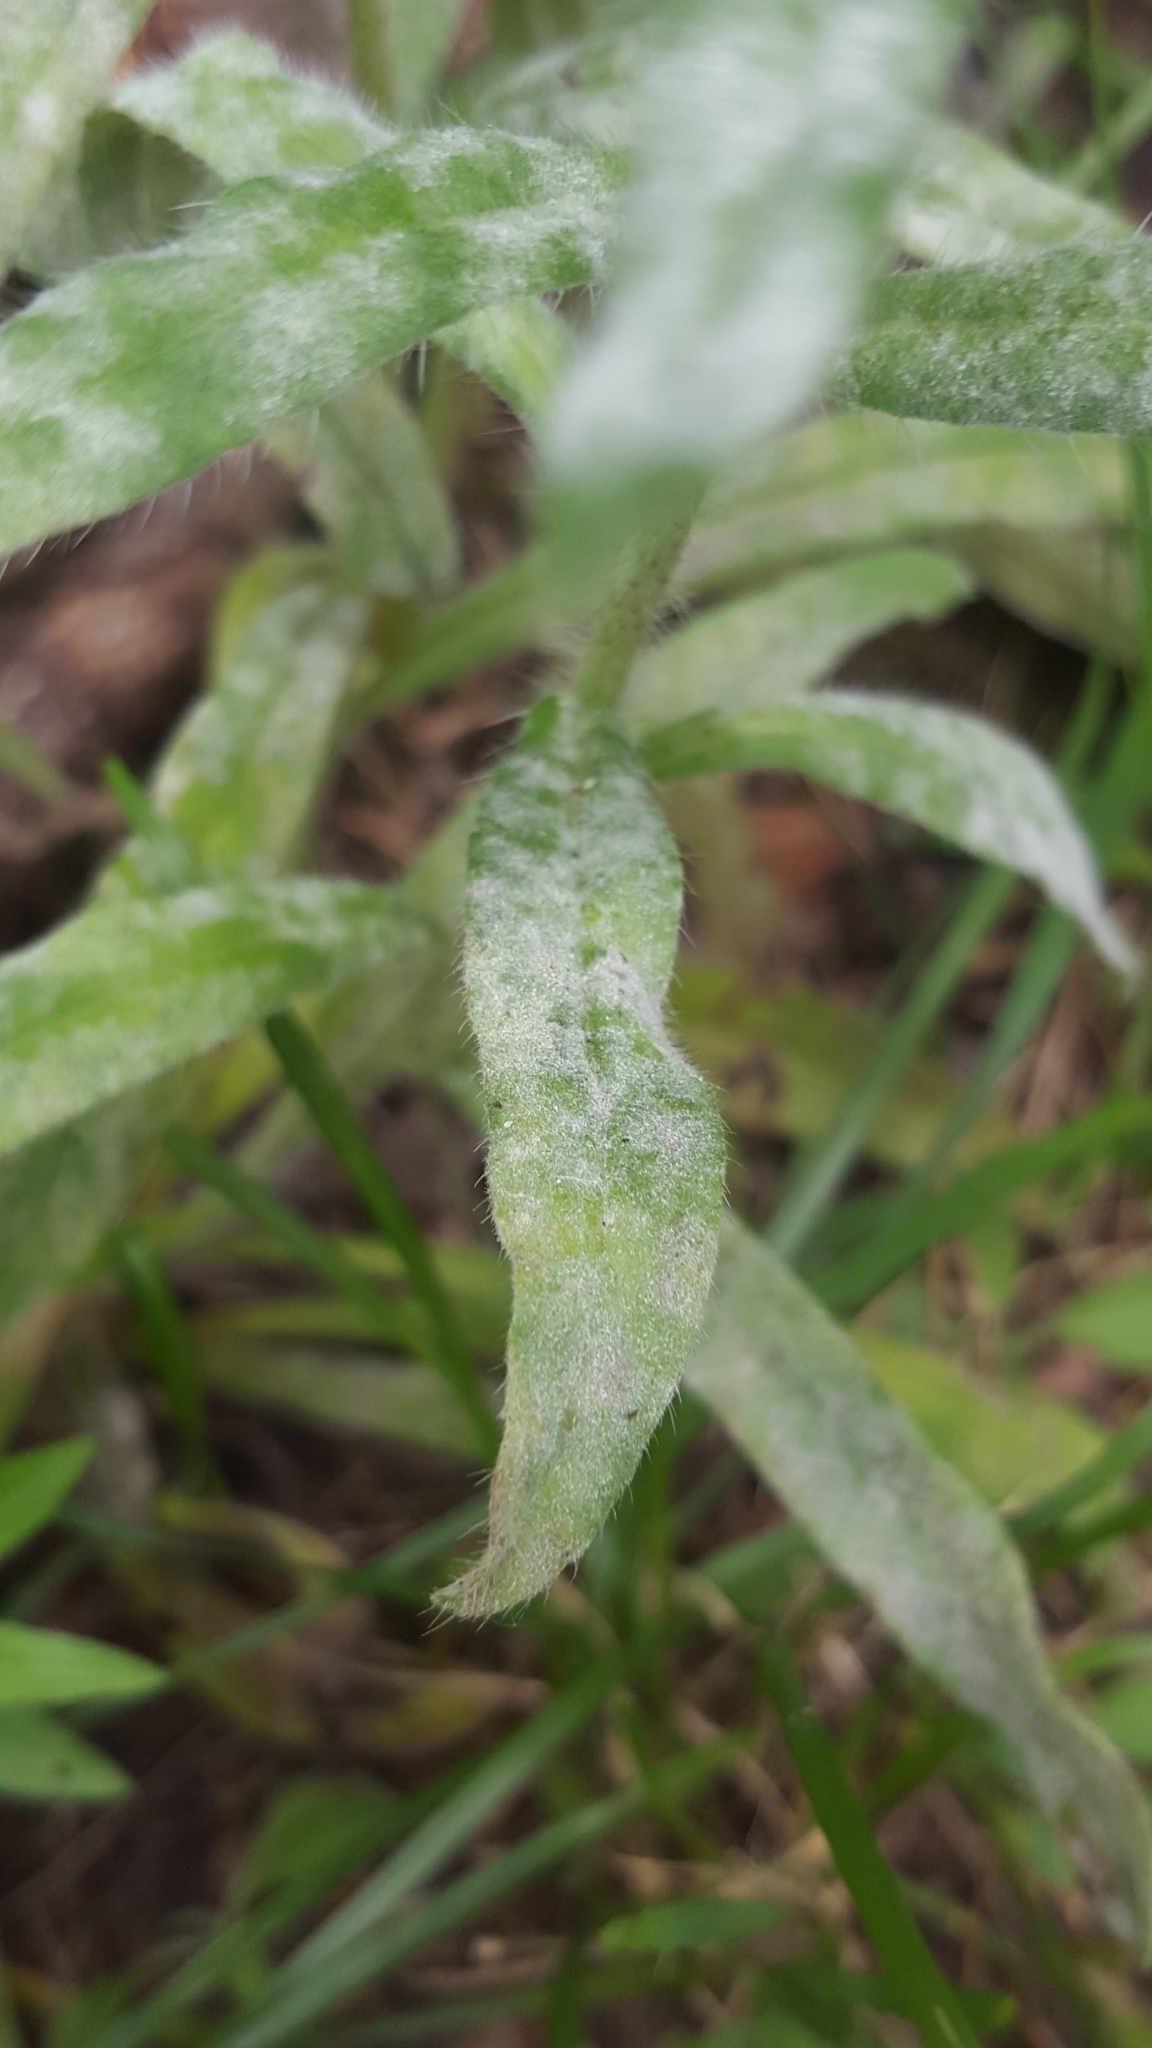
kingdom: Fungi
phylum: Ascomycota
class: Leotiomycetes
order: Helotiales
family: Erysiphaceae
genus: Golovinomyces
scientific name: Golovinomyces asperifolii
